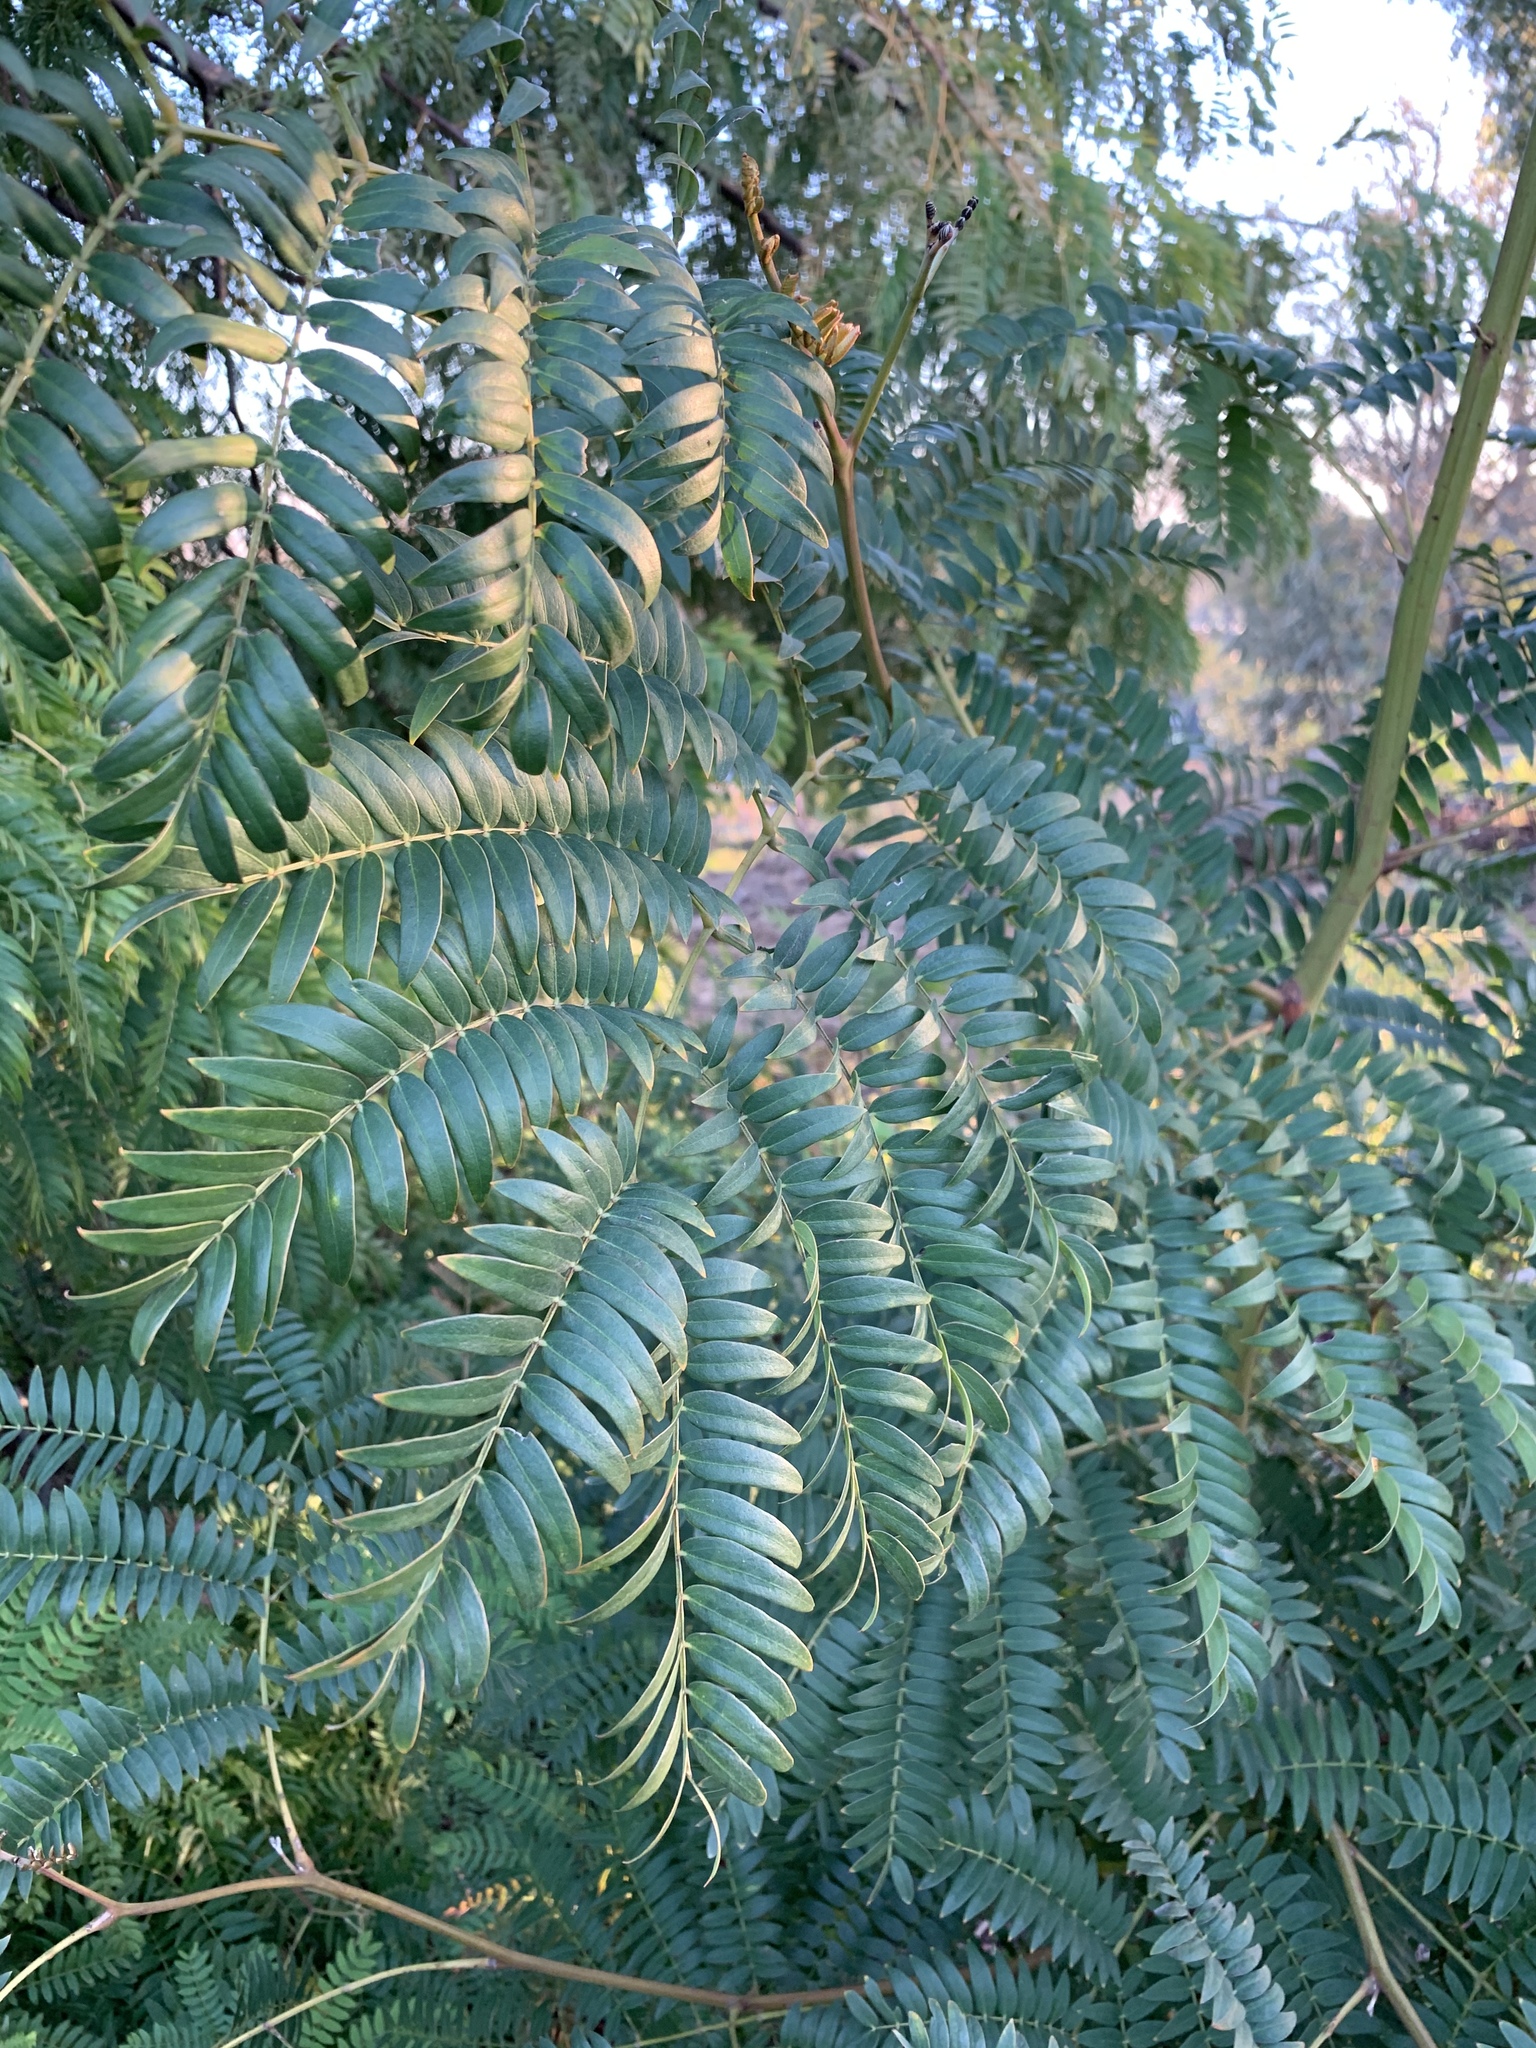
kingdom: Plantae
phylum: Tracheophyta
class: Magnoliopsida
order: Fabales
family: Fabaceae
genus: Acacia
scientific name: Acacia elata
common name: Cedar wattle
